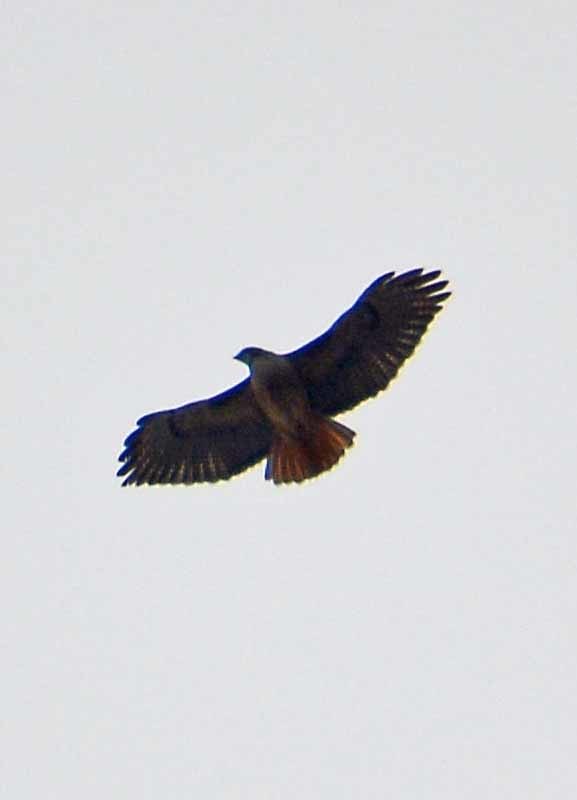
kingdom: Animalia
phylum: Chordata
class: Aves
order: Accipitriformes
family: Accipitridae
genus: Buteo
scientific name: Buteo jamaicensis
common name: Red-tailed hawk
